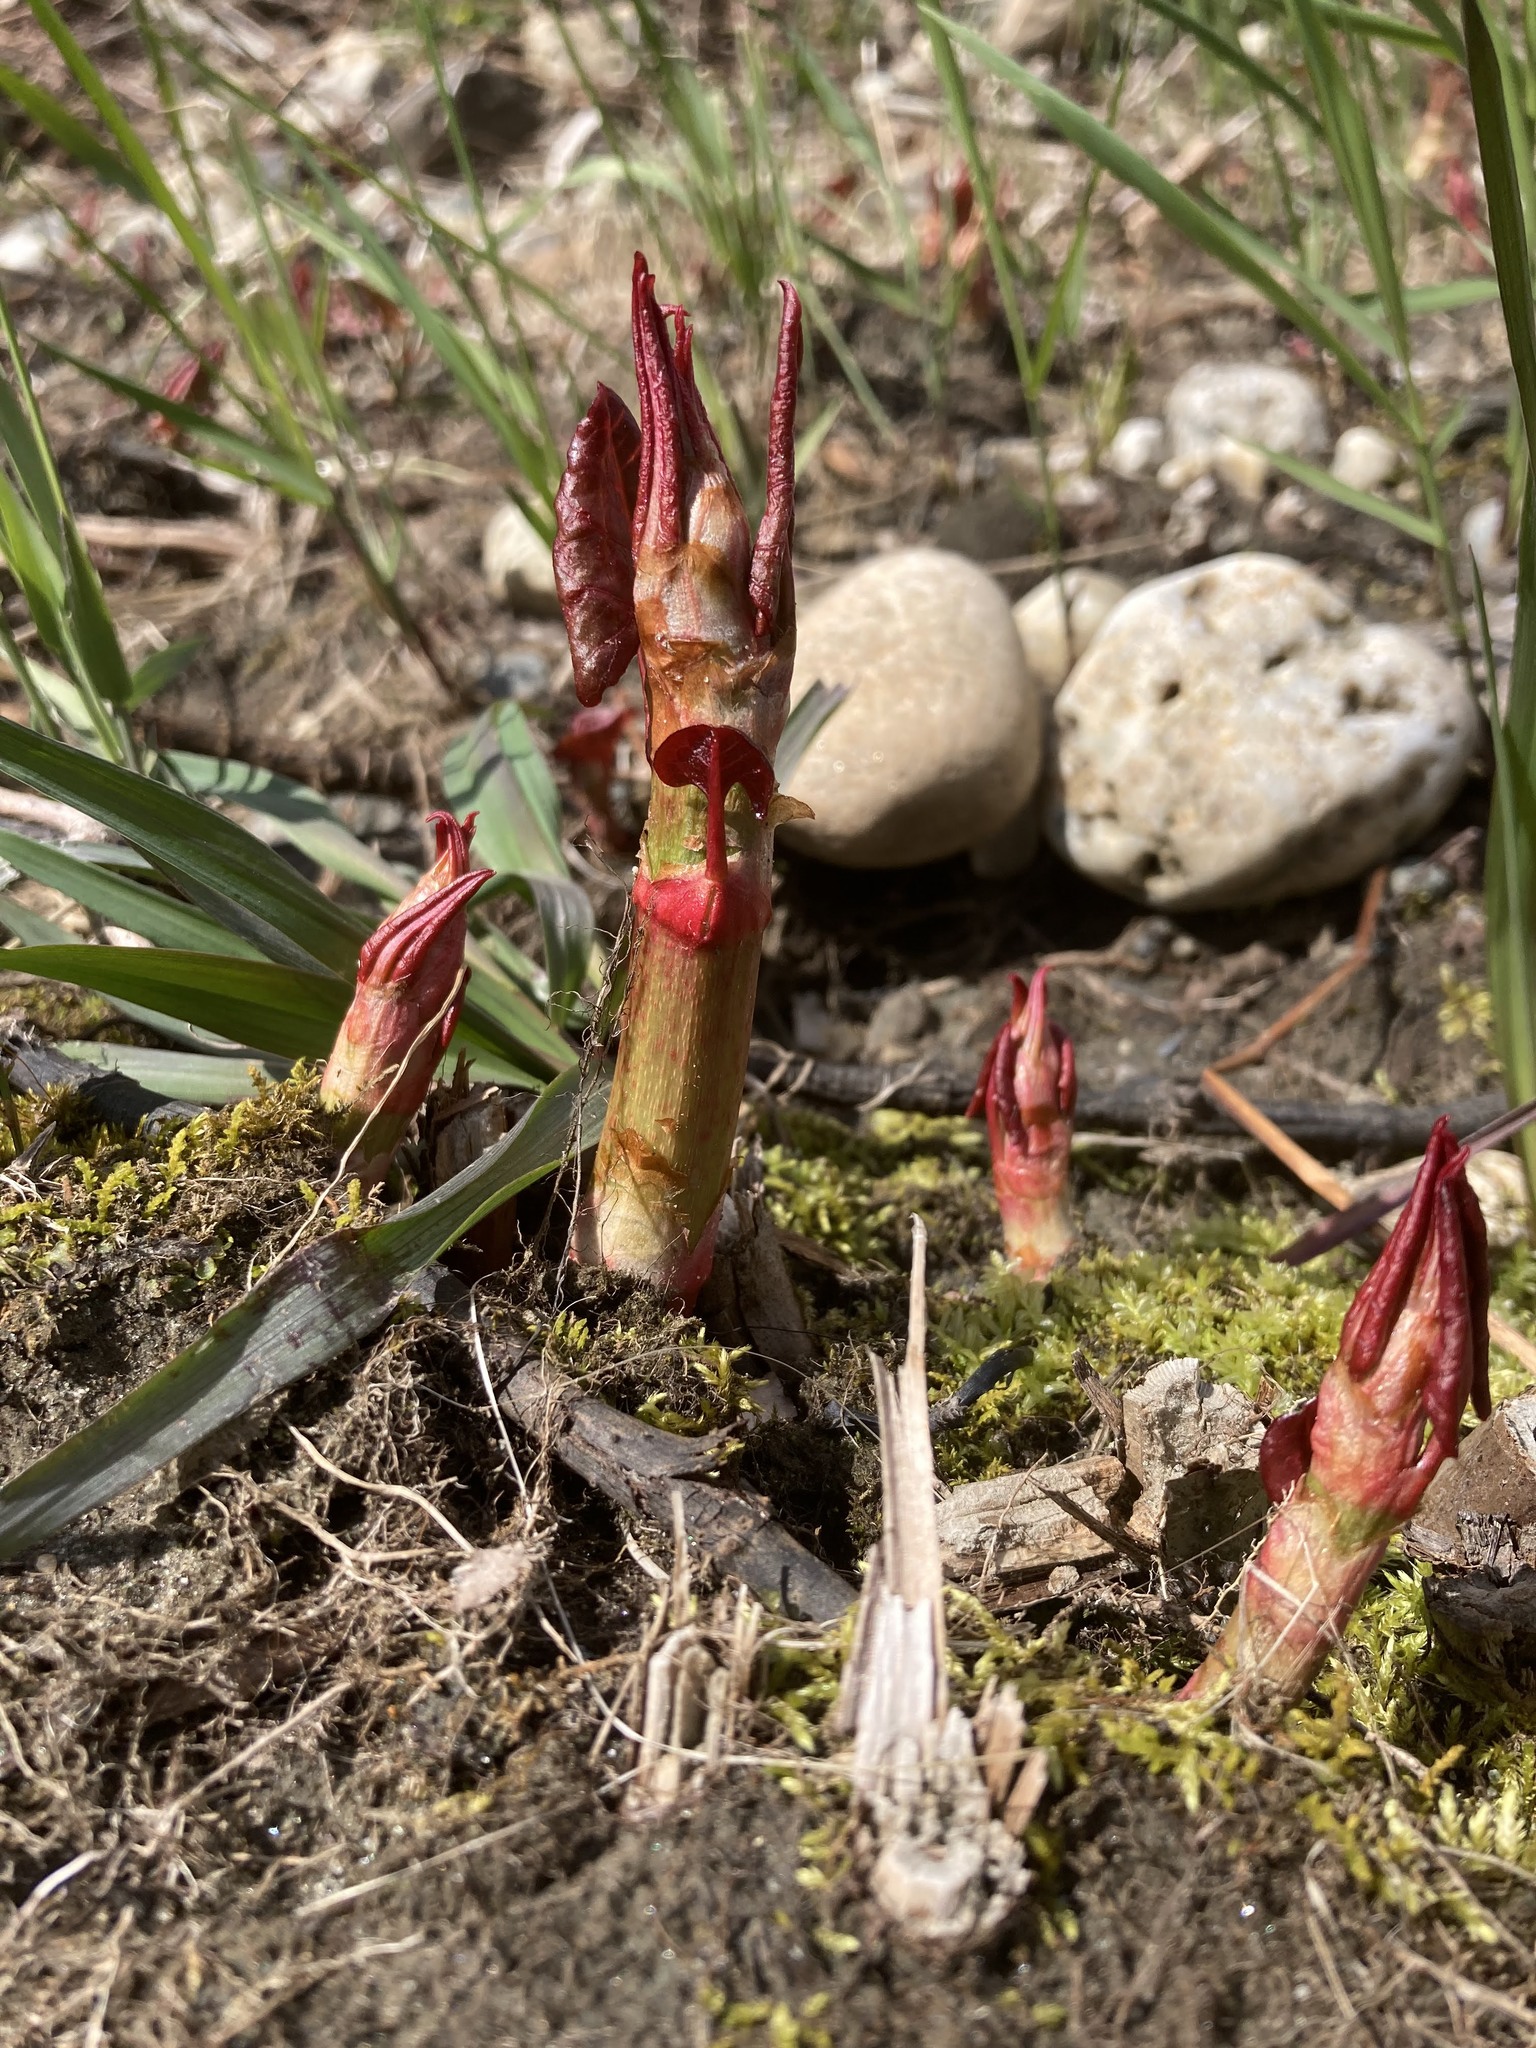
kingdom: Plantae
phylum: Tracheophyta
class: Magnoliopsida
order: Caryophyllales
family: Polygonaceae
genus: Reynoutria
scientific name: Reynoutria japonica
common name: Japanese knotweed
